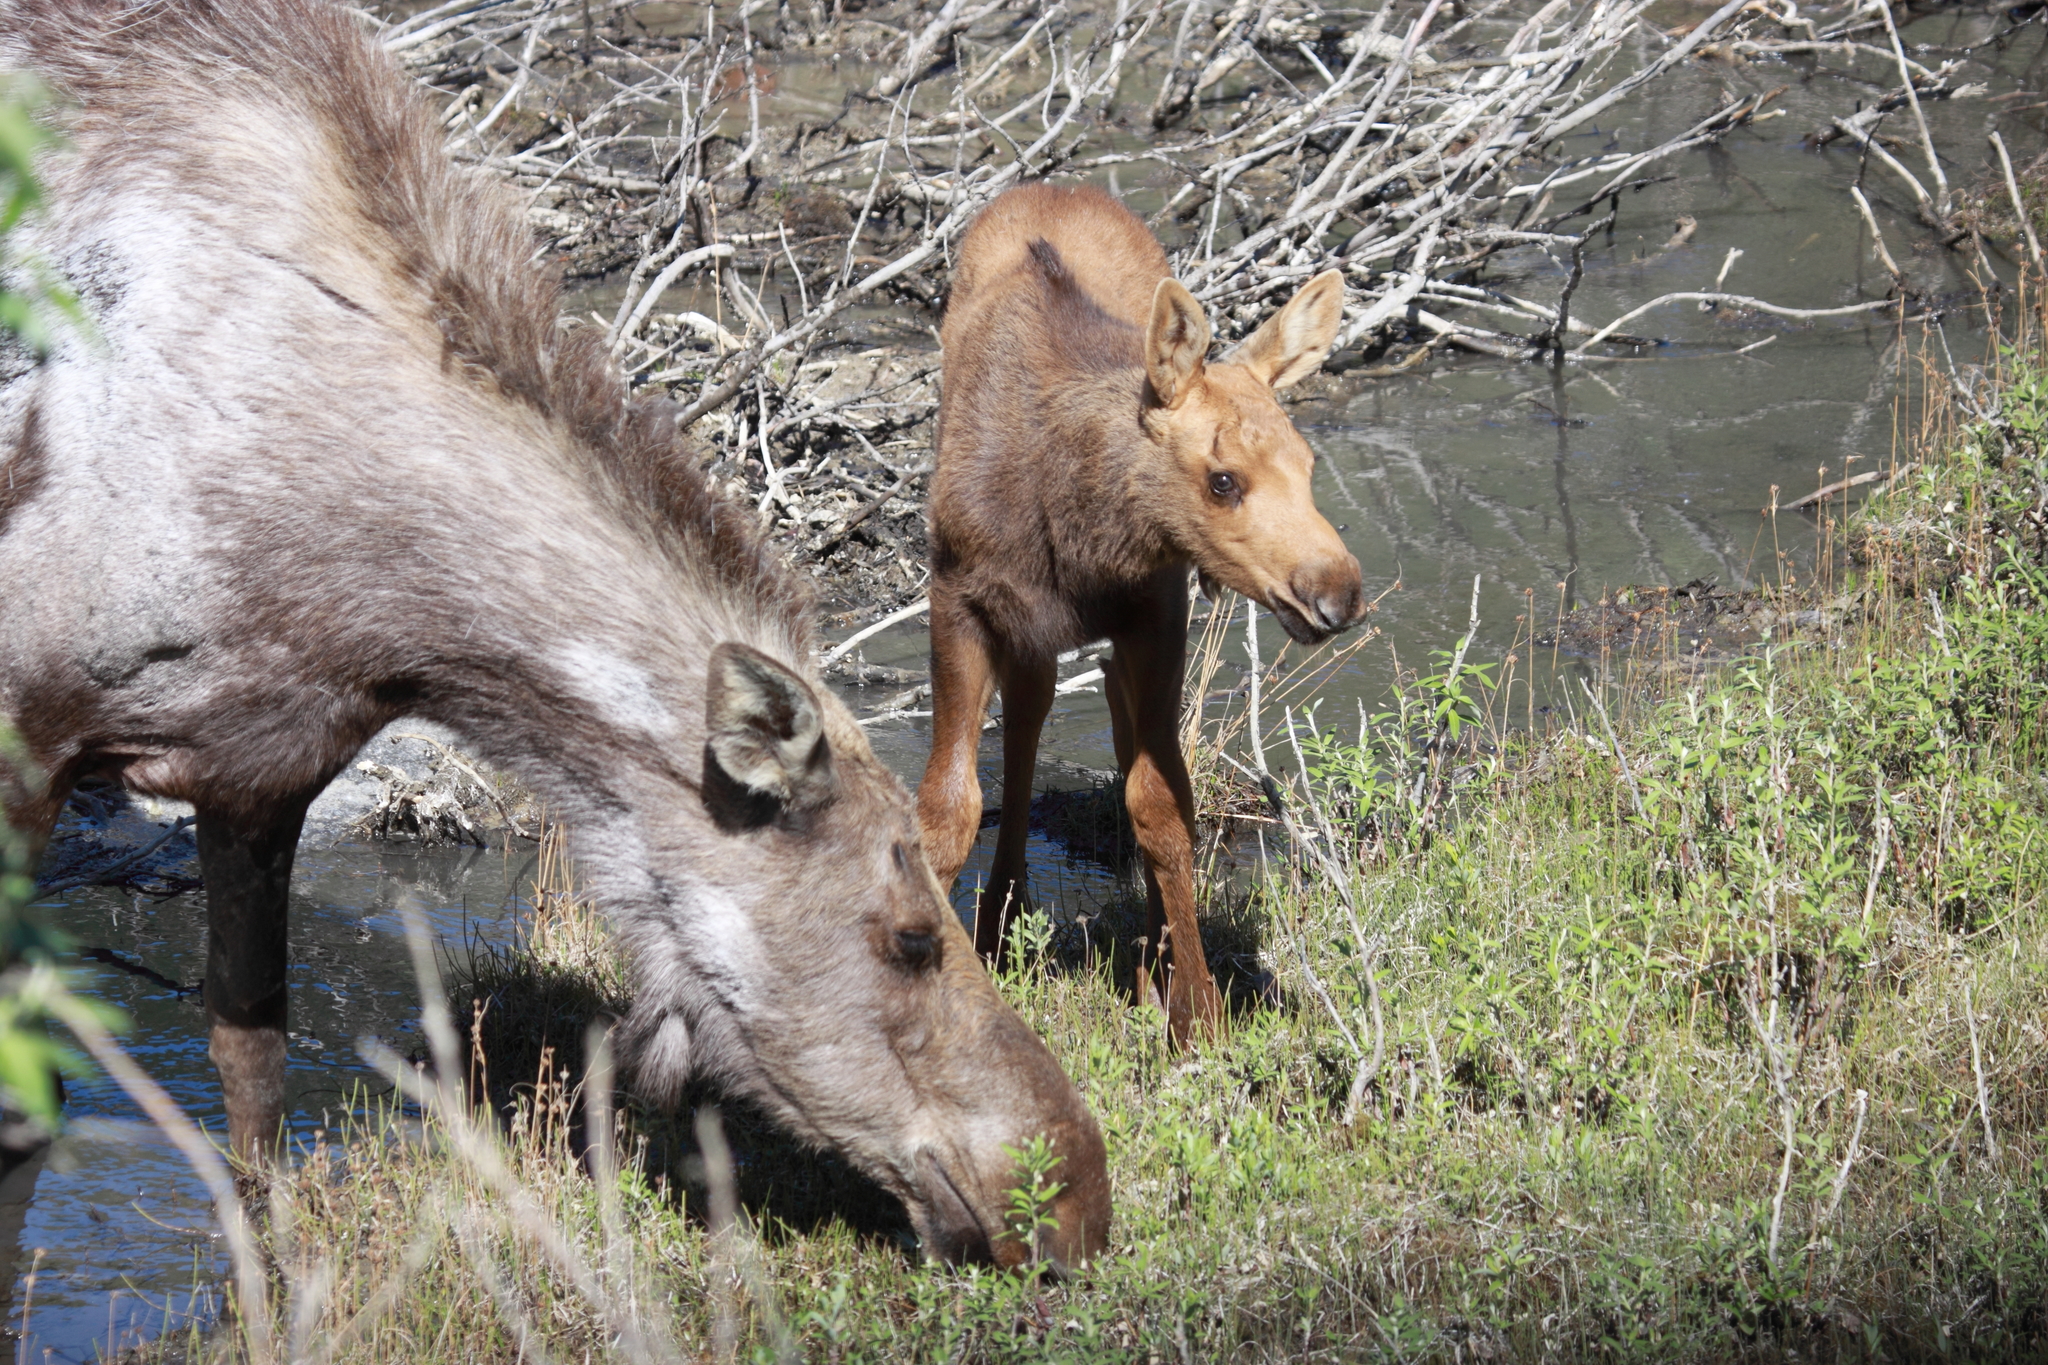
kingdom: Animalia
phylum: Chordata
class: Mammalia
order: Artiodactyla
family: Cervidae
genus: Alces
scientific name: Alces alces
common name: Moose
